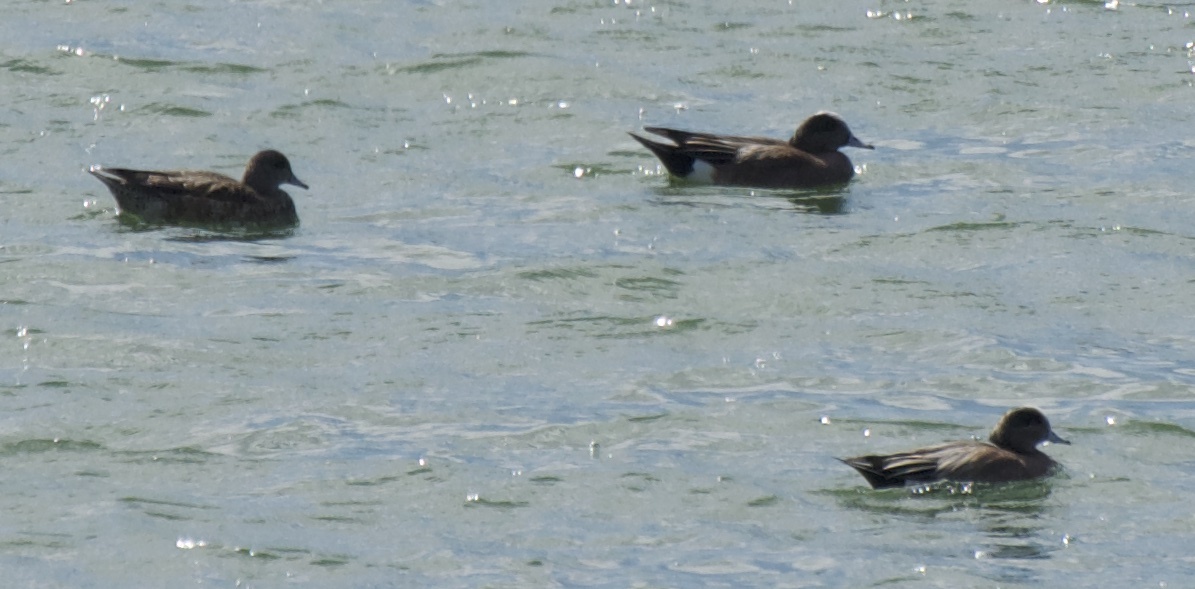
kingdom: Animalia
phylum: Chordata
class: Aves
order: Anseriformes
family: Anatidae
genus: Mareca
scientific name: Mareca americana
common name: American wigeon
